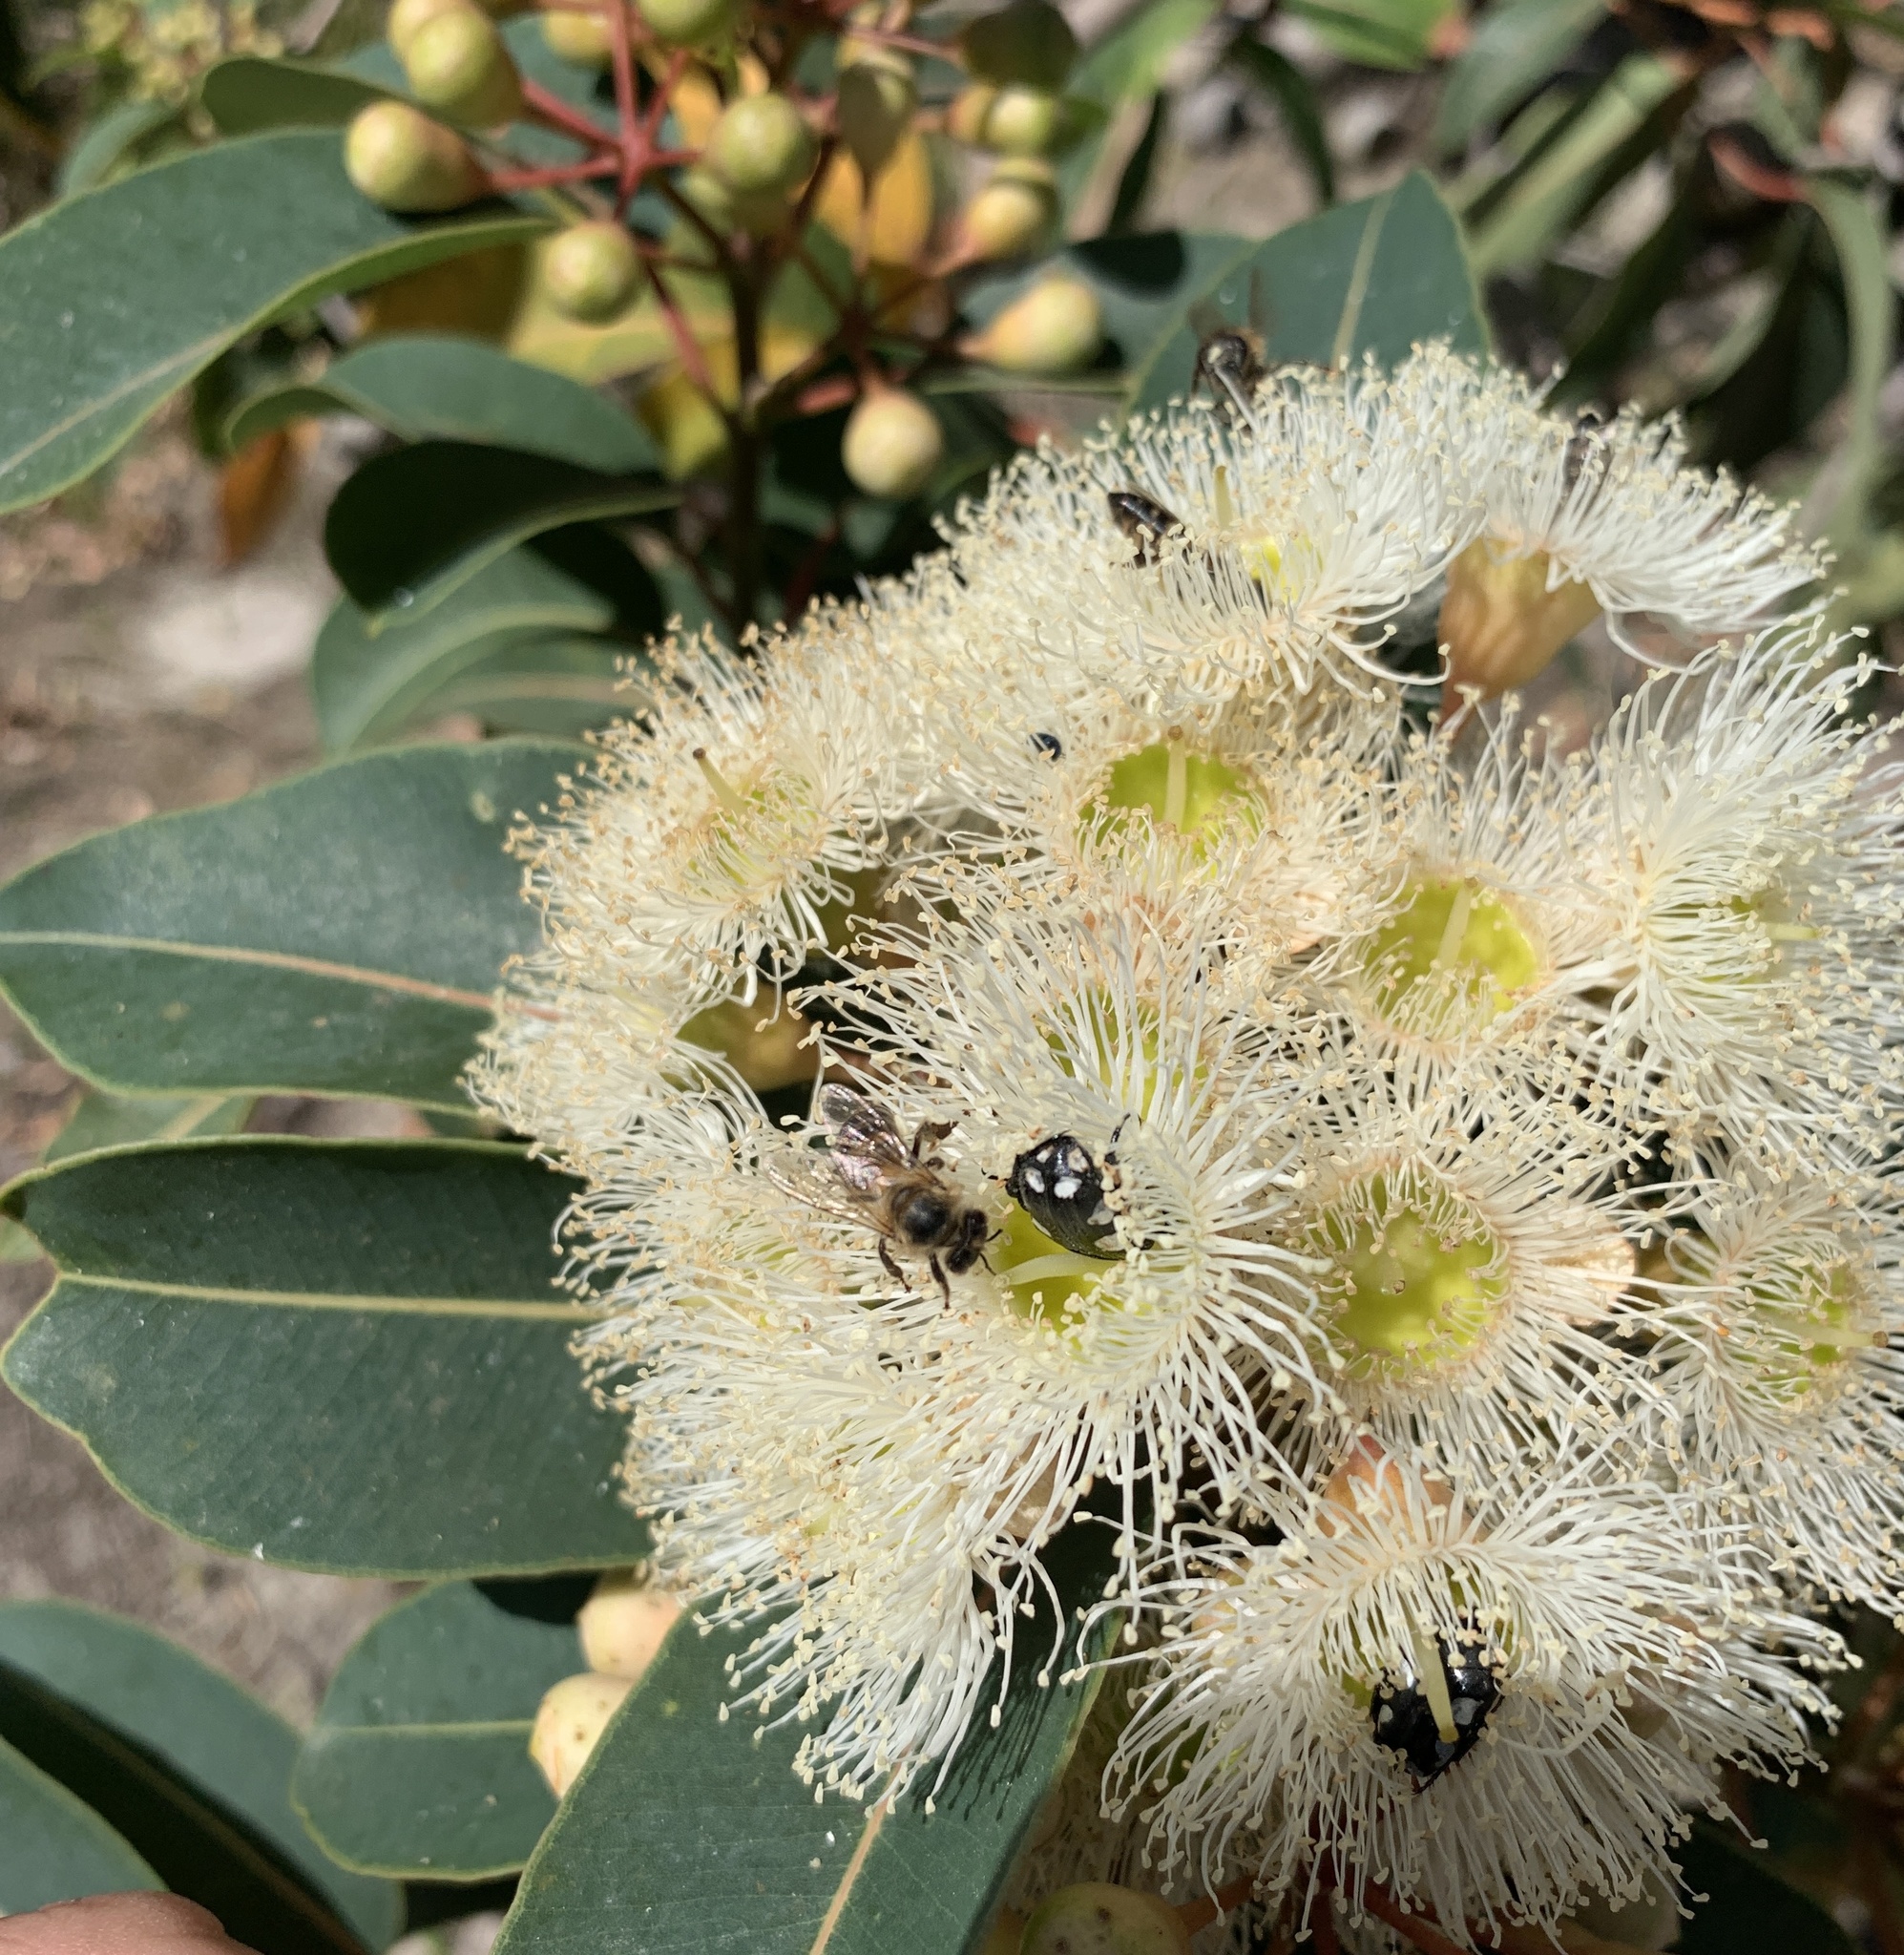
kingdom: Animalia
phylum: Arthropoda
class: Insecta
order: Coleoptera
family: Scarabaeidae
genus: Mausoleopsis
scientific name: Mausoleopsis amabilis
